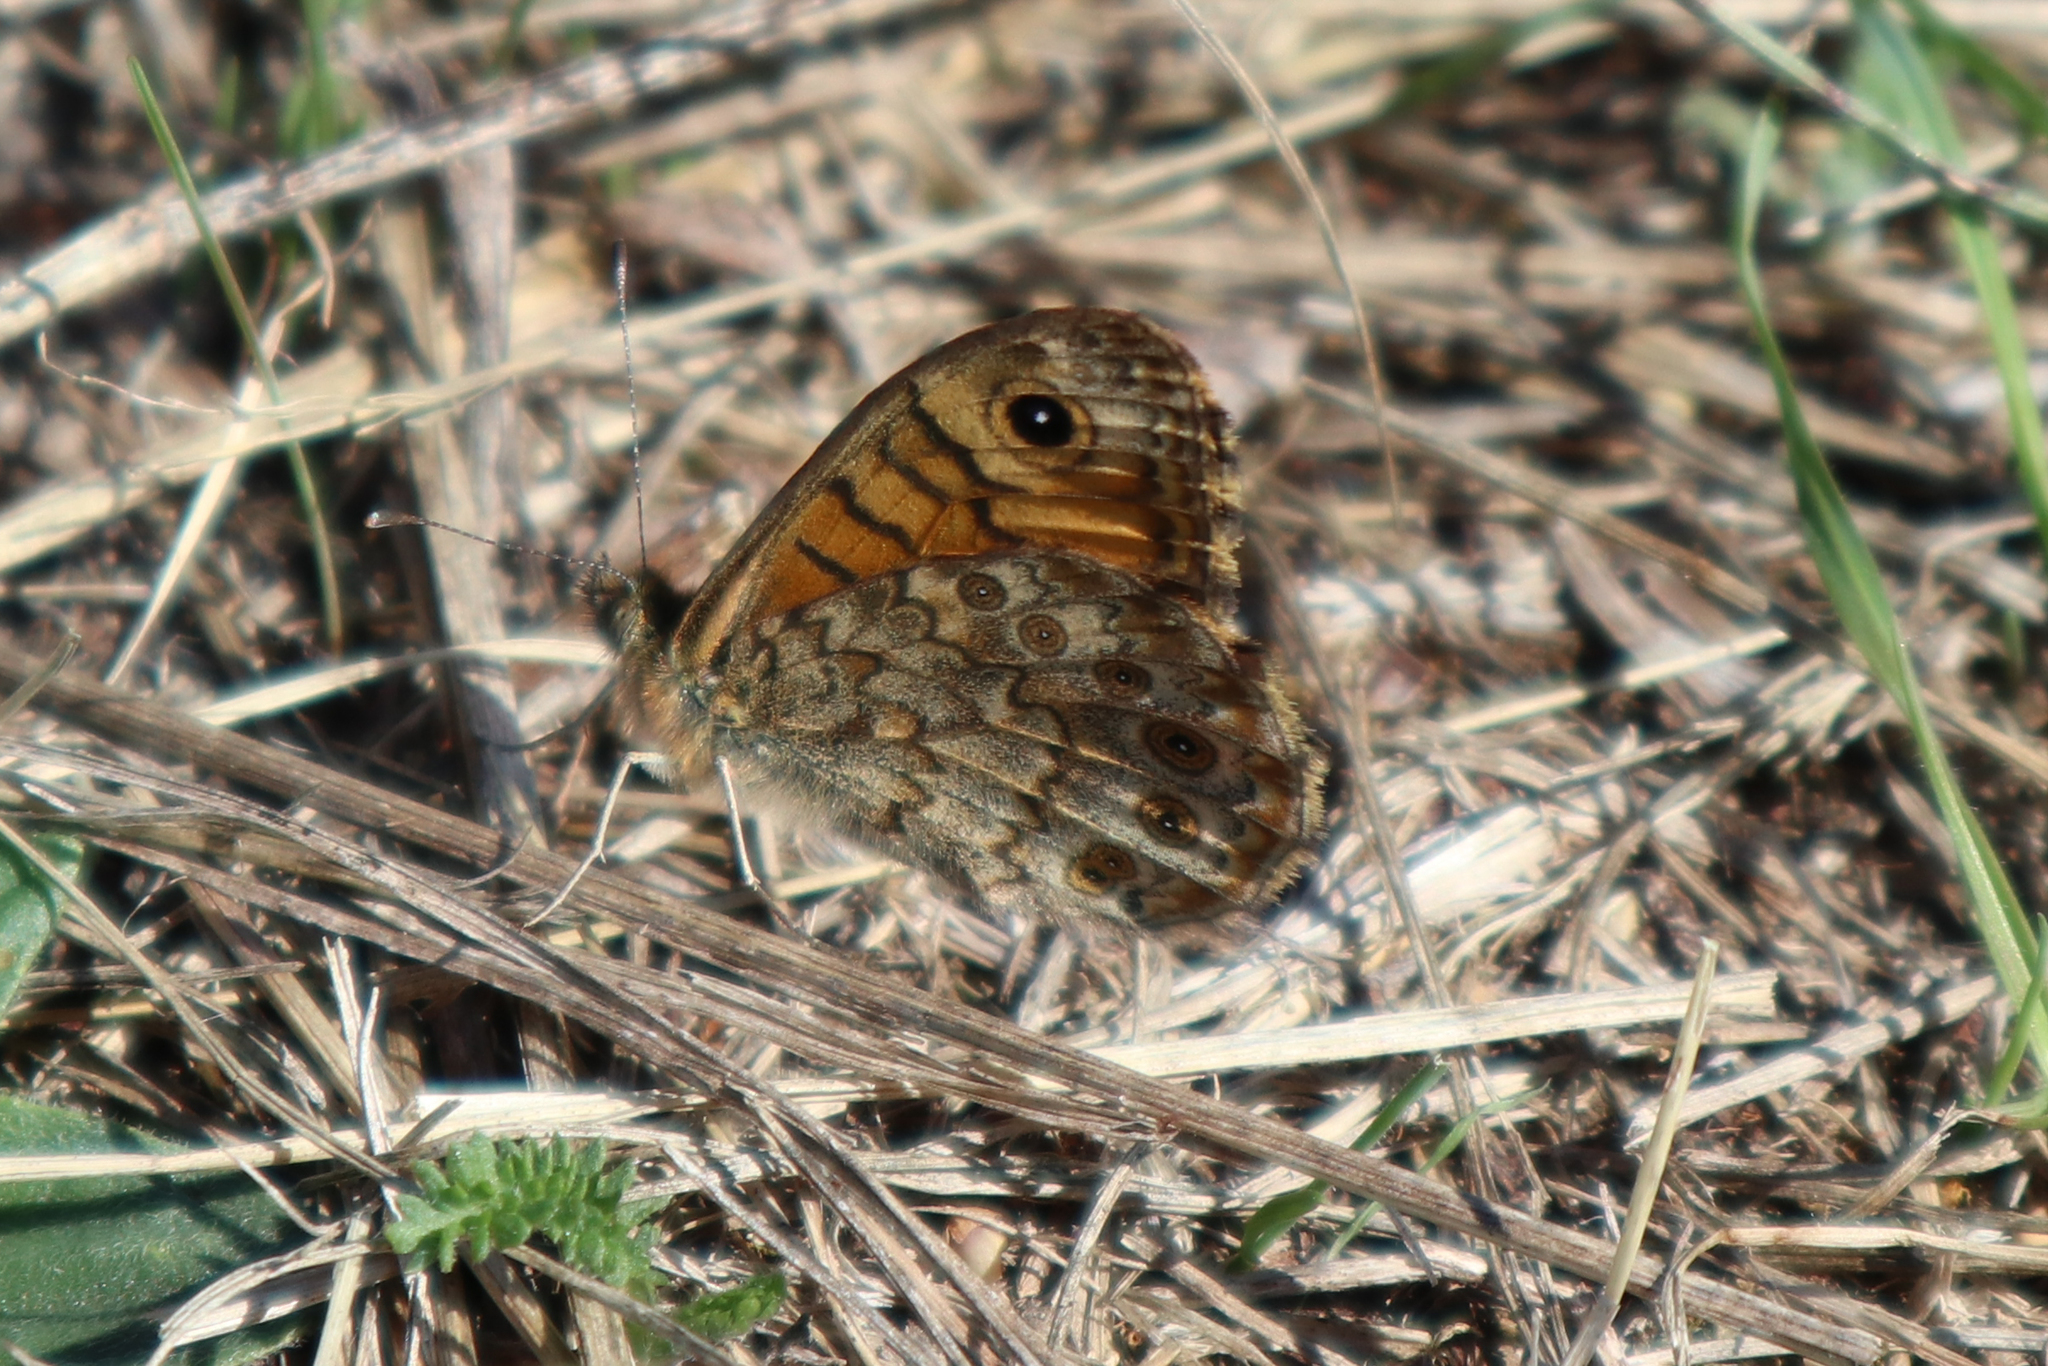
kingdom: Animalia
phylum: Arthropoda
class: Insecta
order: Lepidoptera
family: Nymphalidae
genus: Pararge
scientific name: Pararge Lasiommata megera
